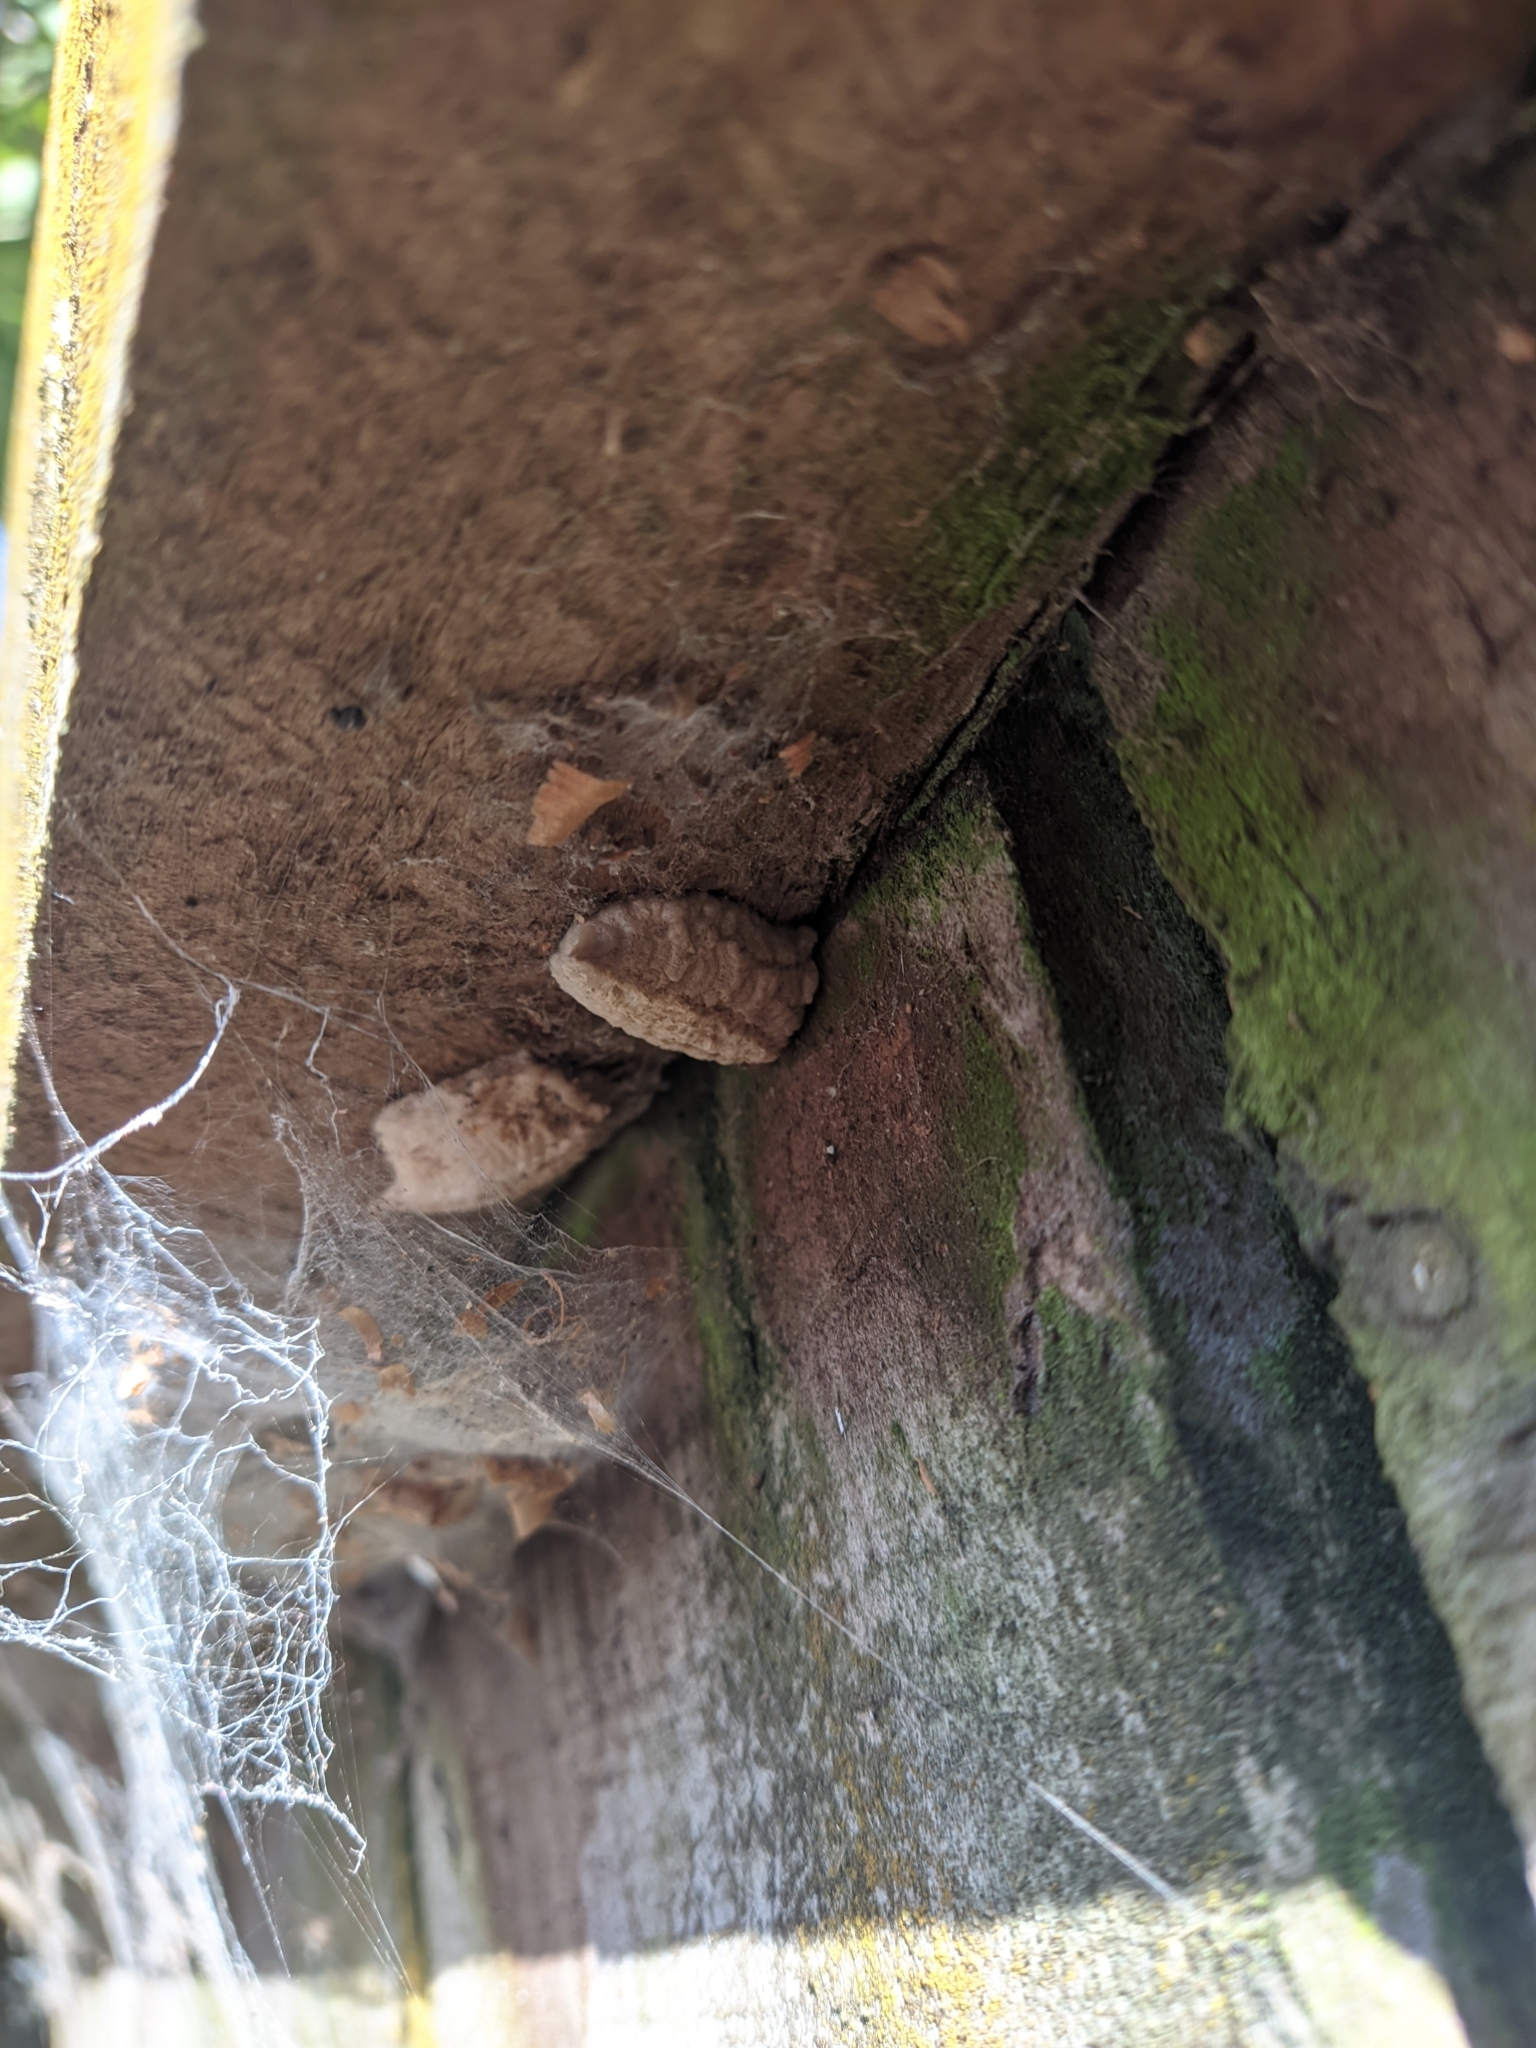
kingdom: Animalia
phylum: Arthropoda
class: Insecta
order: Mantodea
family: Miomantidae
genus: Miomantis
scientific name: Miomantis caffra
